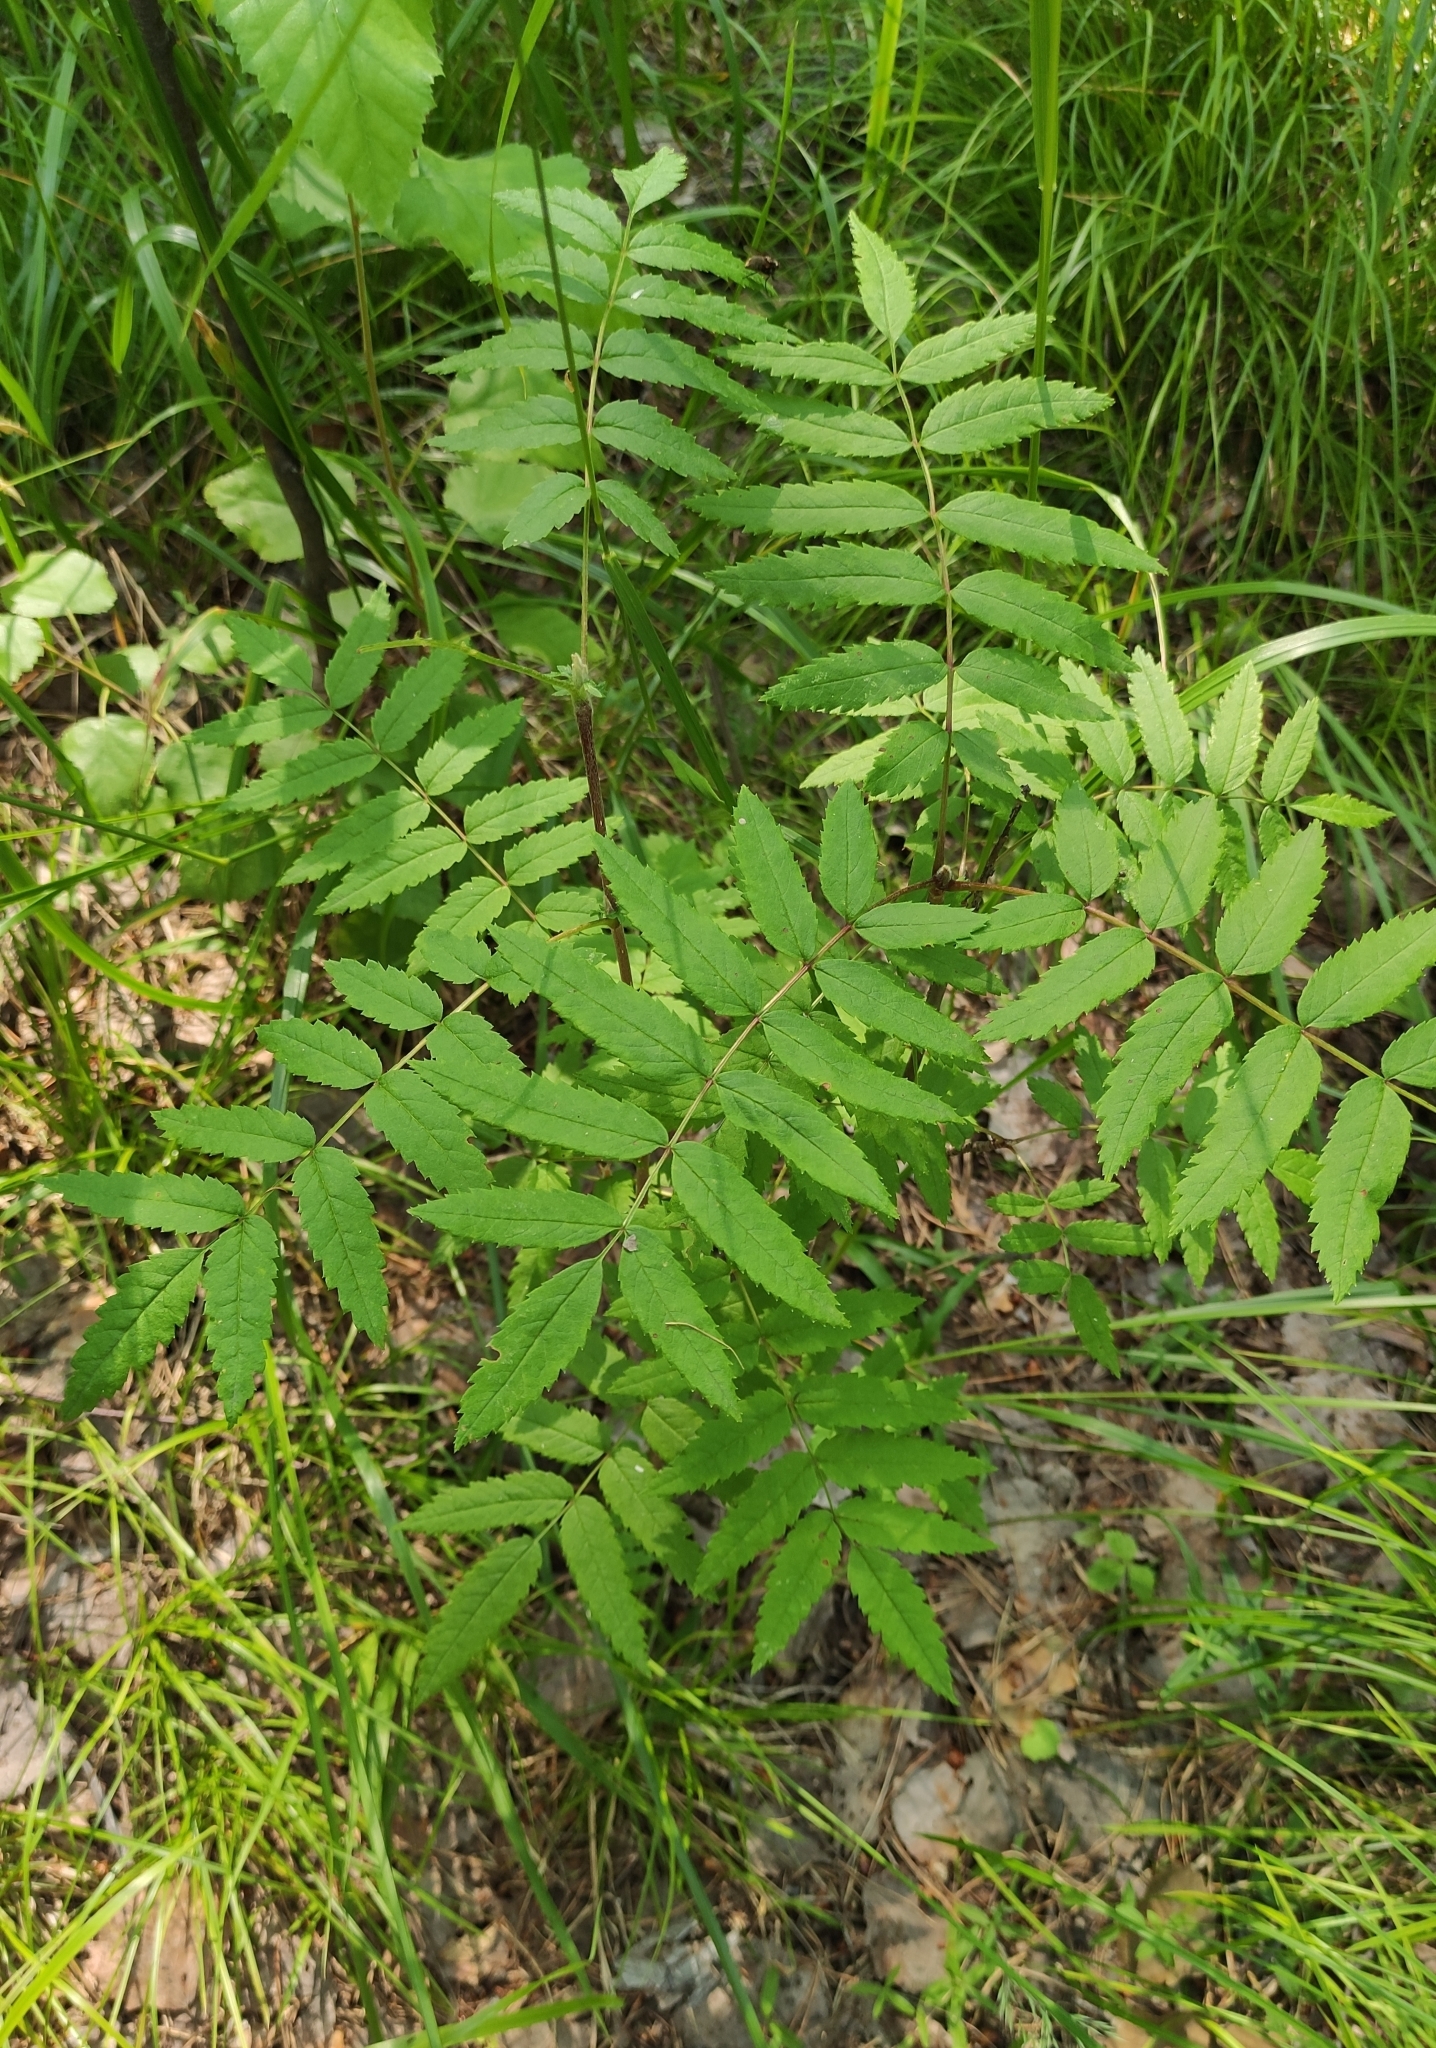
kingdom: Plantae
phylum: Tracheophyta
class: Magnoliopsida
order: Rosales
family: Rosaceae
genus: Sorbus
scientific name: Sorbus aucuparia
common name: Rowan
